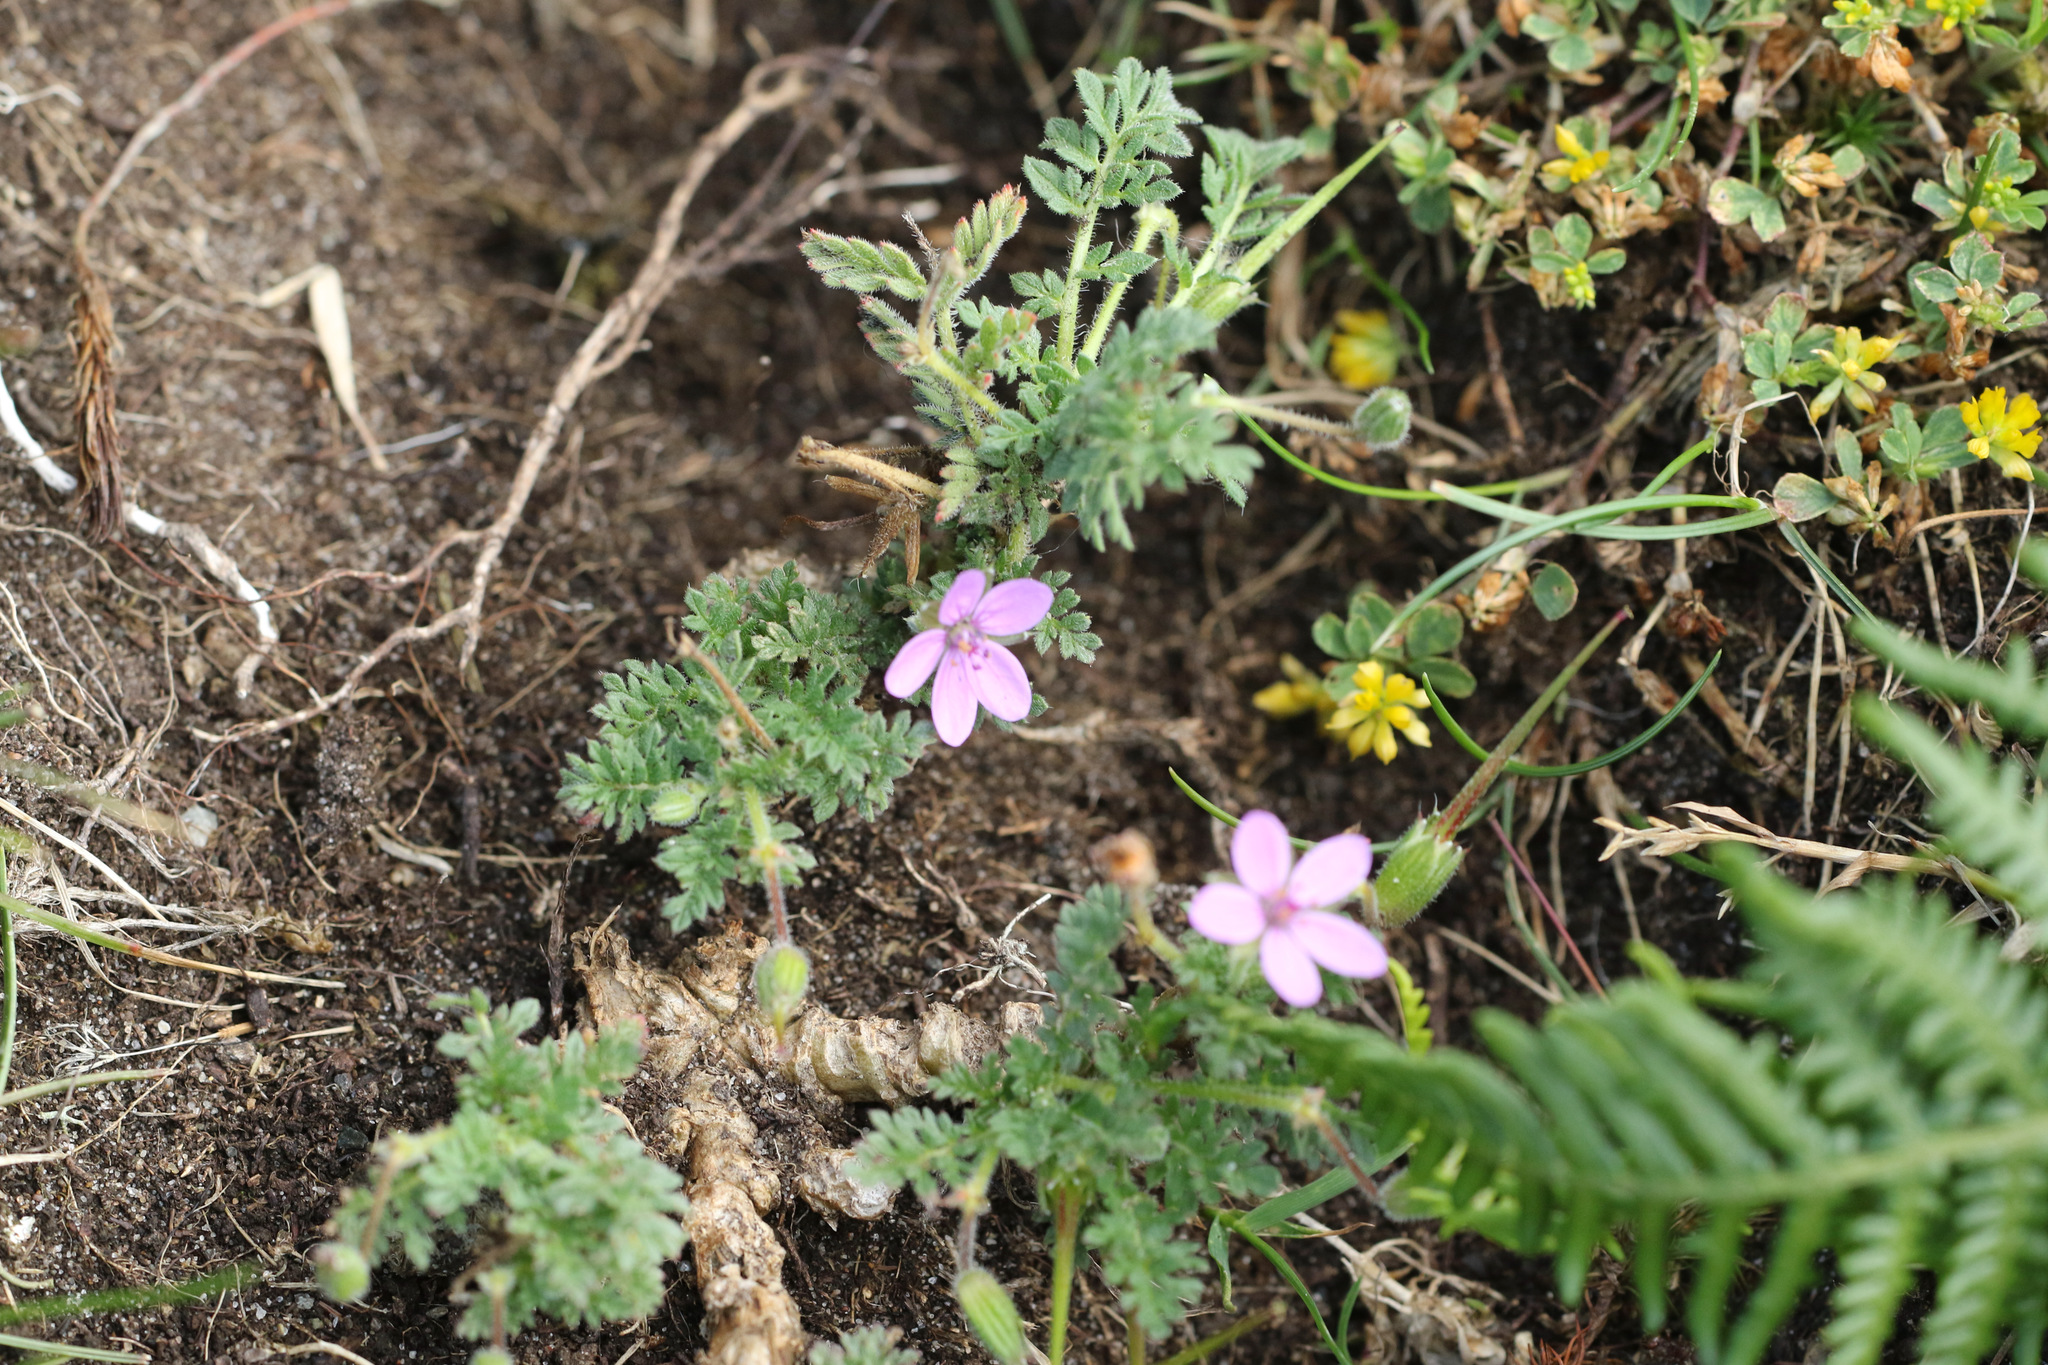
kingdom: Plantae
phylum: Tracheophyta
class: Magnoliopsida
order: Geraniales
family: Geraniaceae
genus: Erodium
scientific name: Erodium cicutarium
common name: Common stork's-bill
